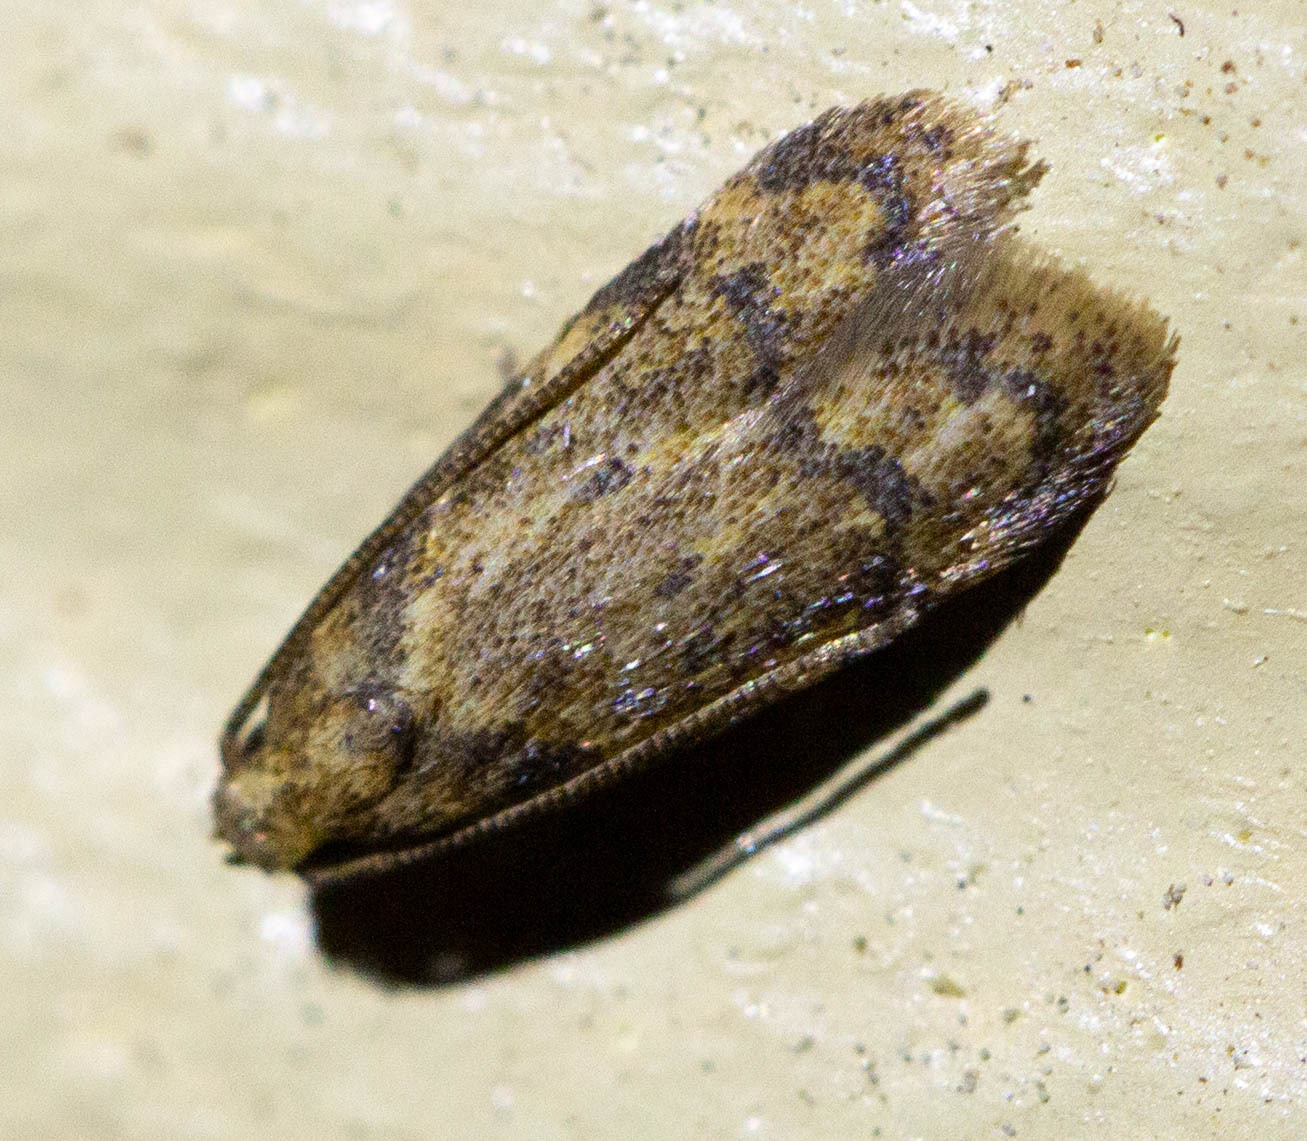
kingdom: Animalia
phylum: Arthropoda
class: Insecta
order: Lepidoptera
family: Autostichidae
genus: Gerdana
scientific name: Gerdana caritella
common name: Gerdana moth
